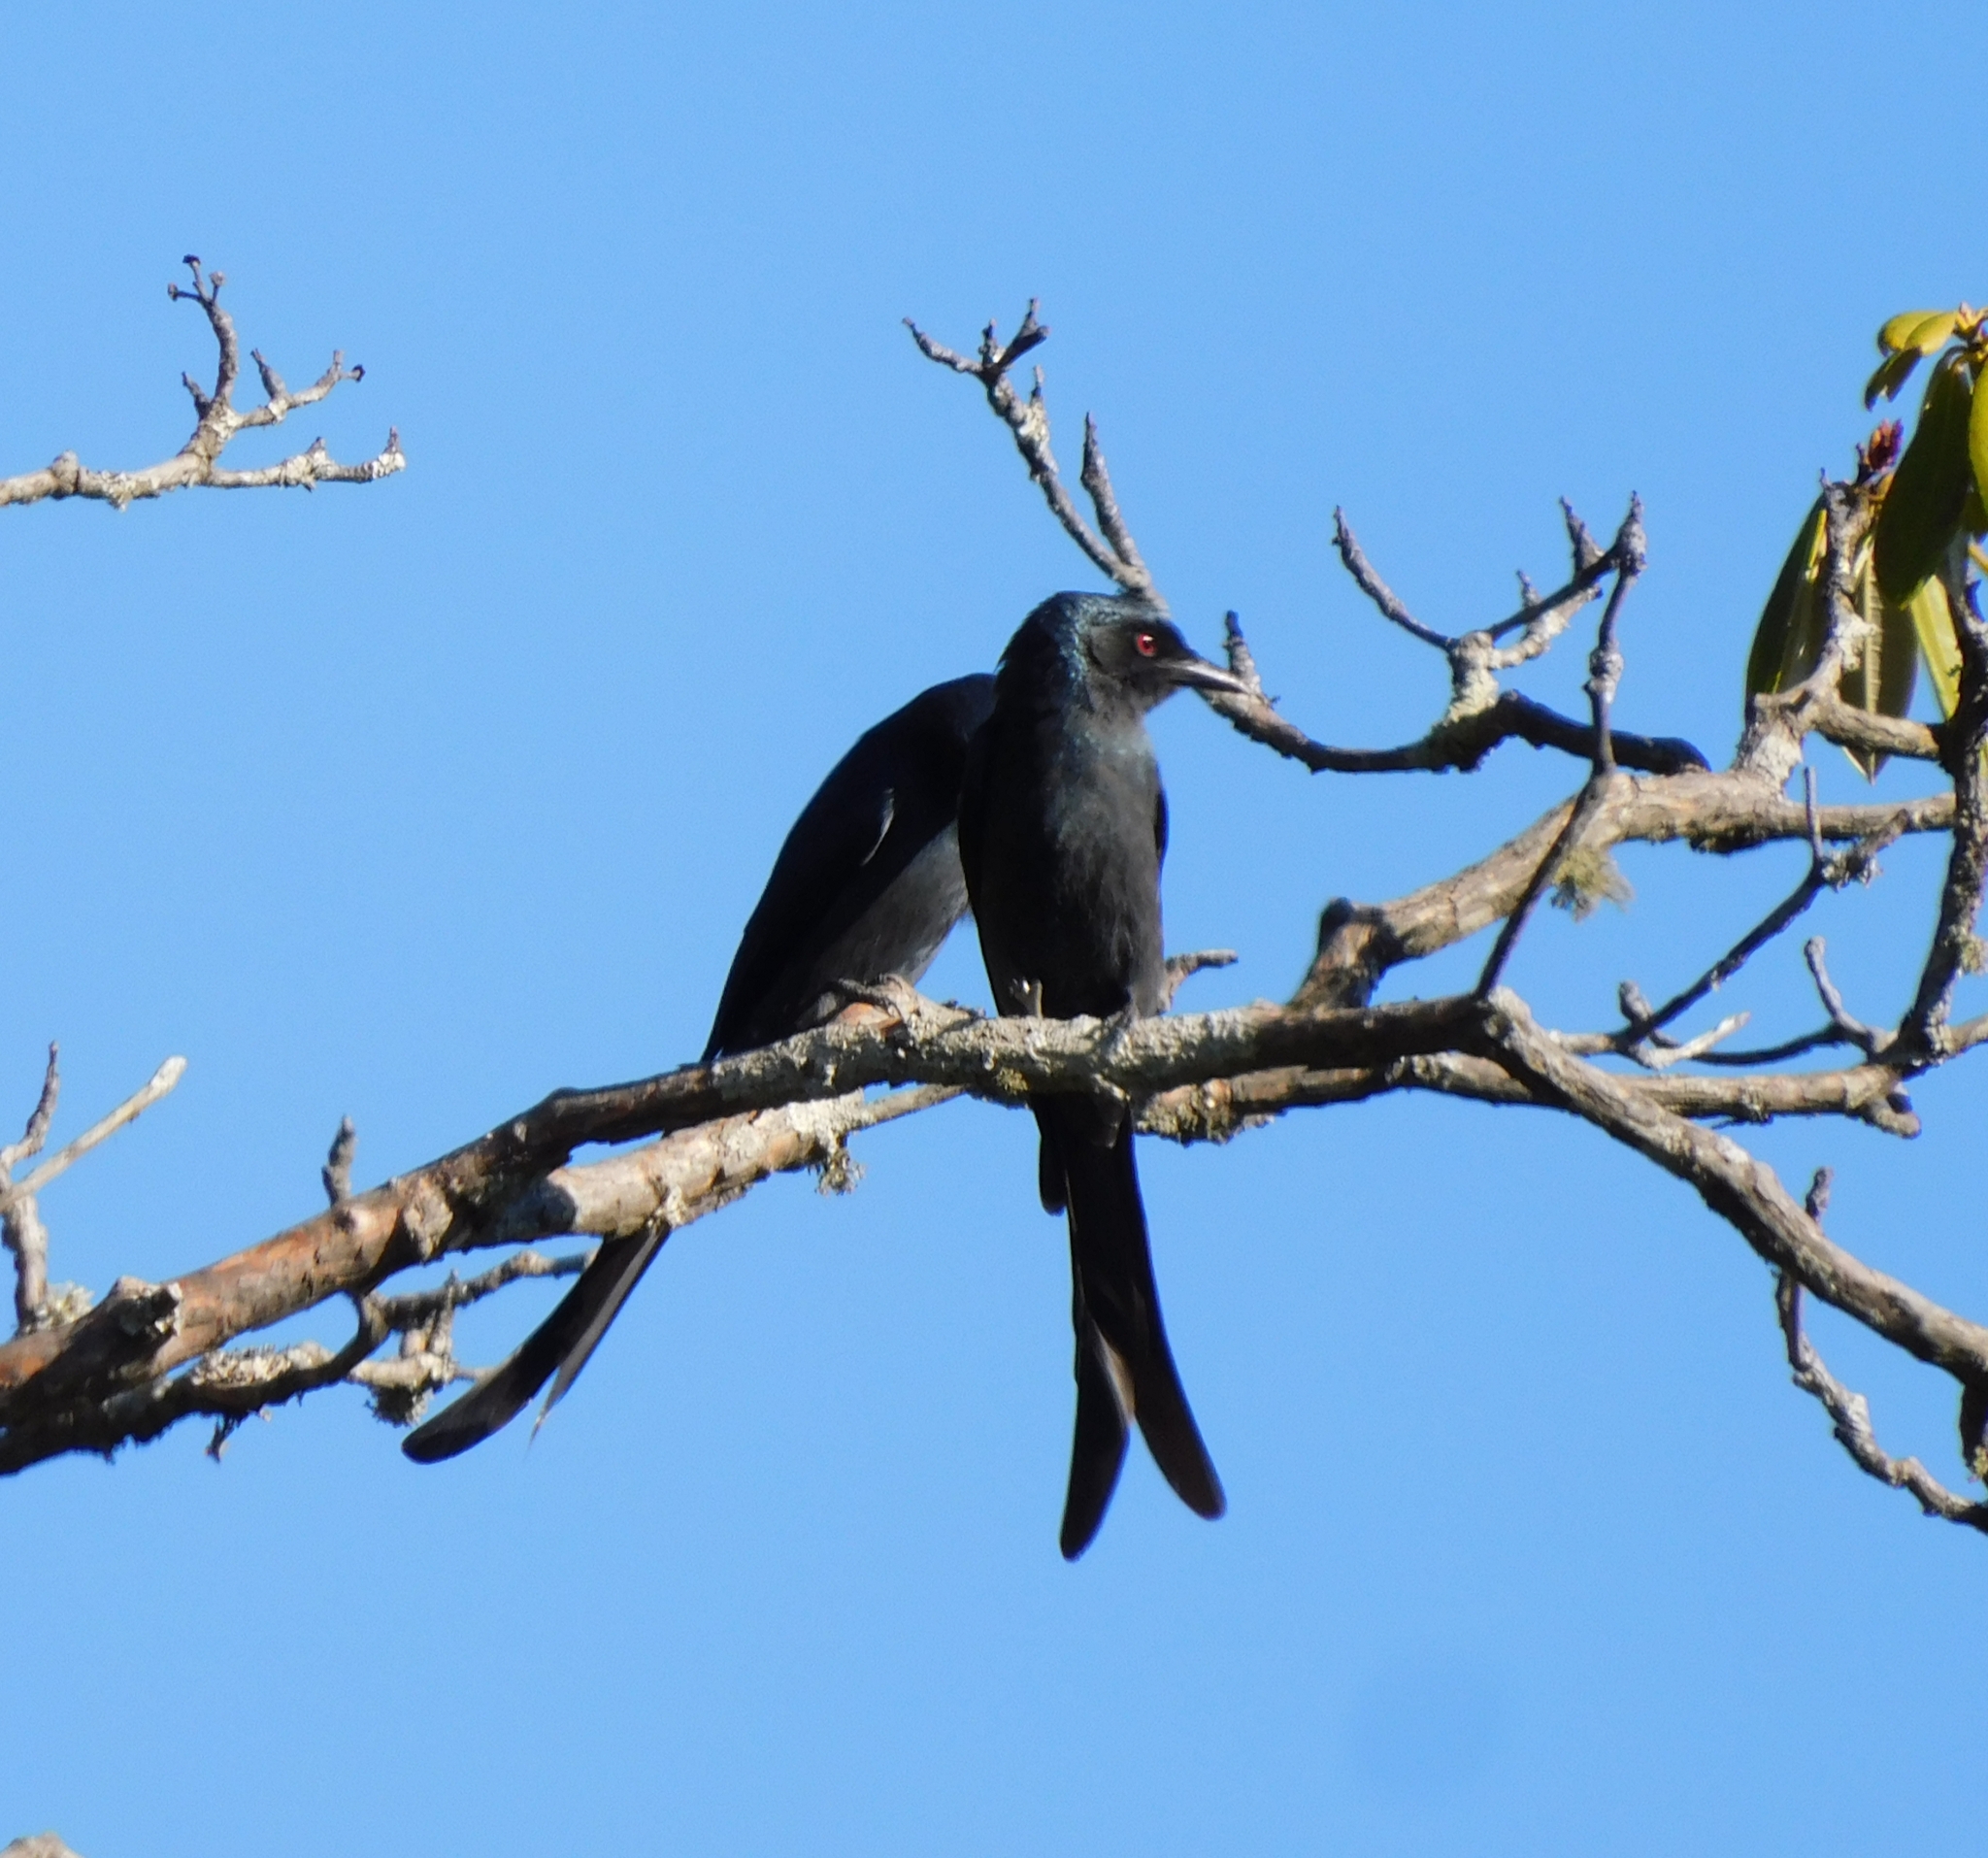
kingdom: Animalia
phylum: Chordata
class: Aves
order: Passeriformes
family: Dicruridae
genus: Dicrurus
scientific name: Dicrurus leucophaeus
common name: Ashy drongo
